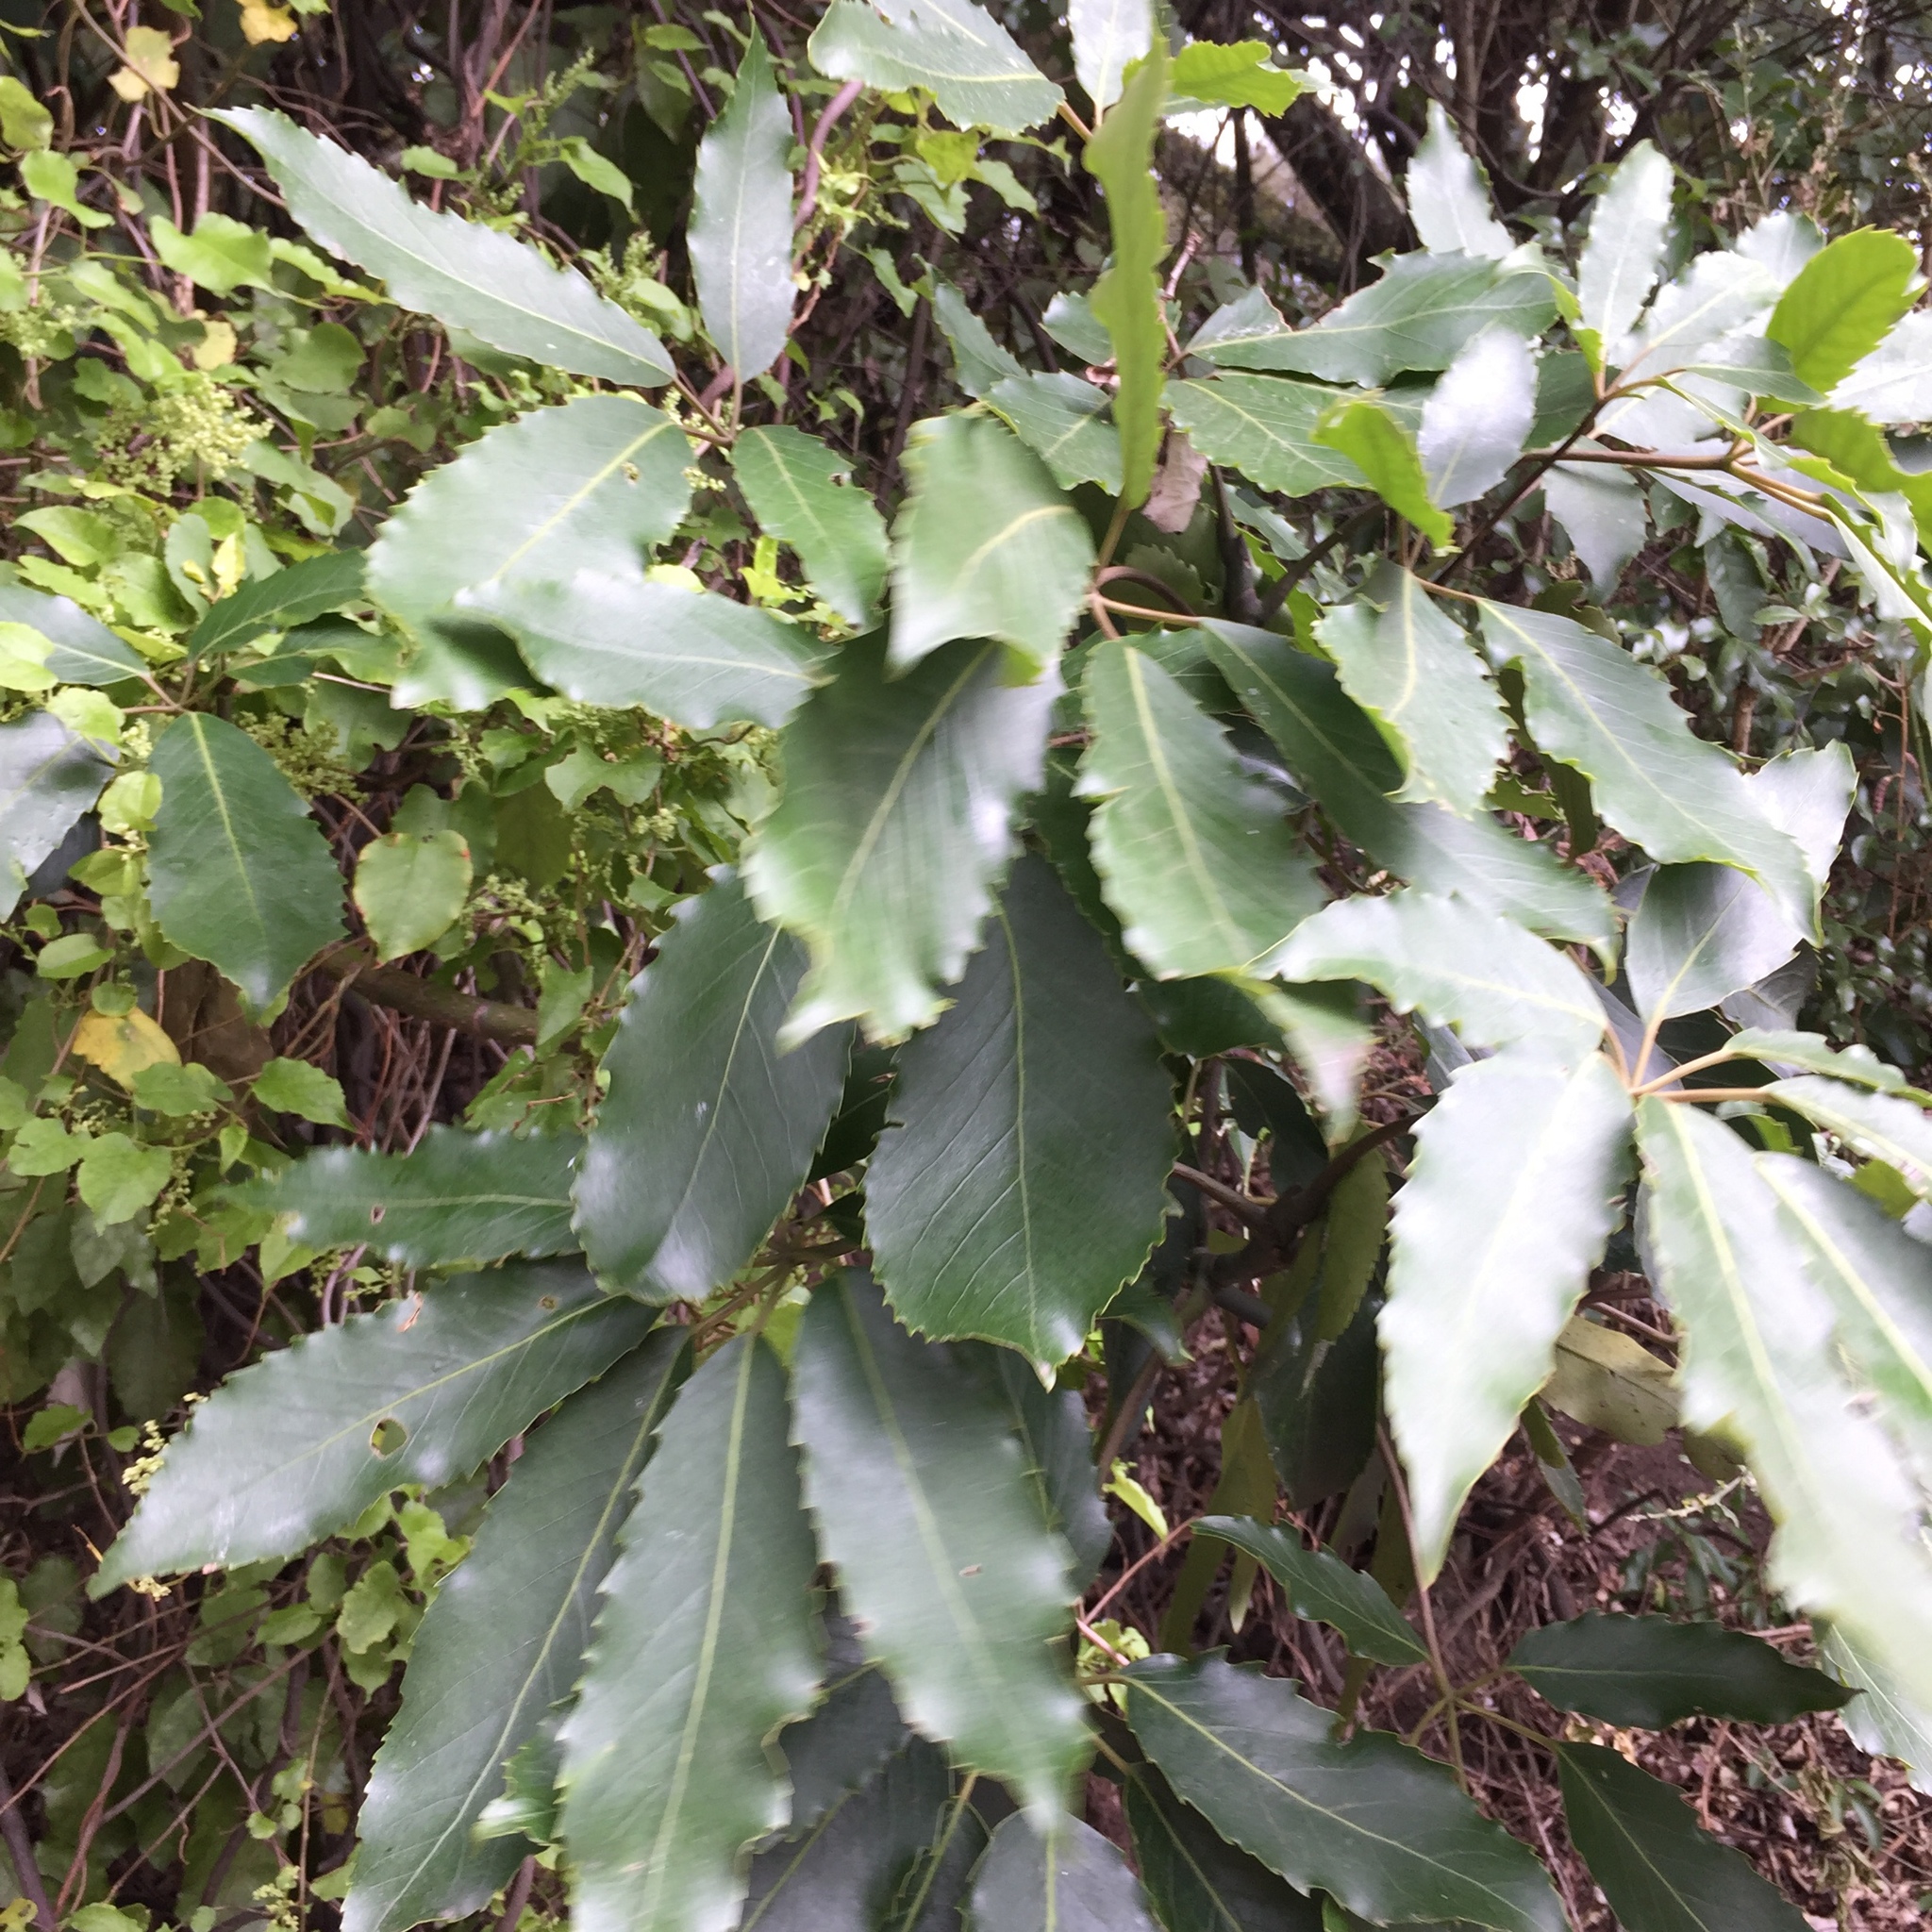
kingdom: Plantae
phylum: Tracheophyta
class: Magnoliopsida
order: Apiales
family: Araliaceae
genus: Neopanax
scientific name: Neopanax arboreus
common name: Five-fingers
